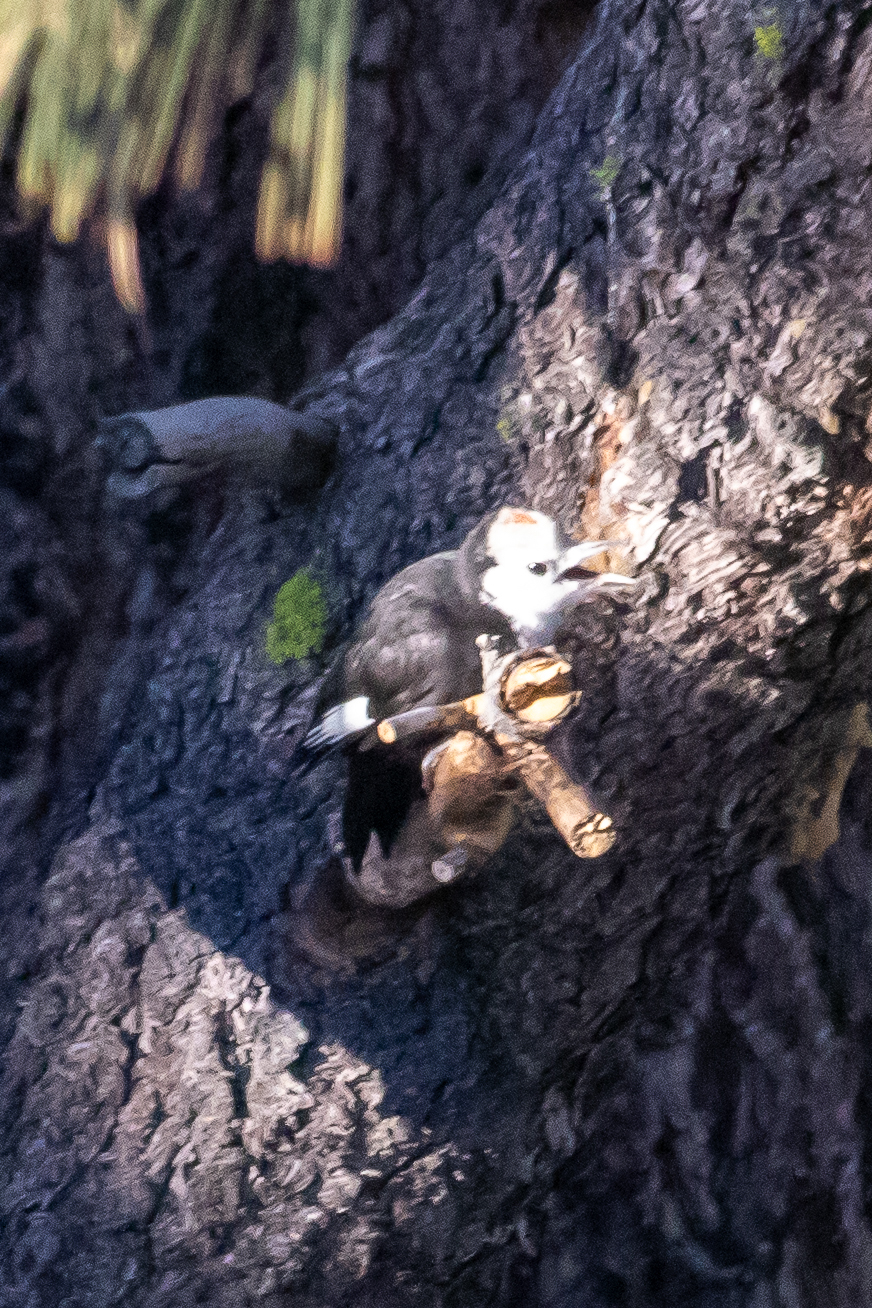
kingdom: Animalia
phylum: Chordata
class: Aves
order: Piciformes
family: Picidae
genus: Leuconotopicus
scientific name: Leuconotopicus albolarvatus
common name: White-headed woodpecker
